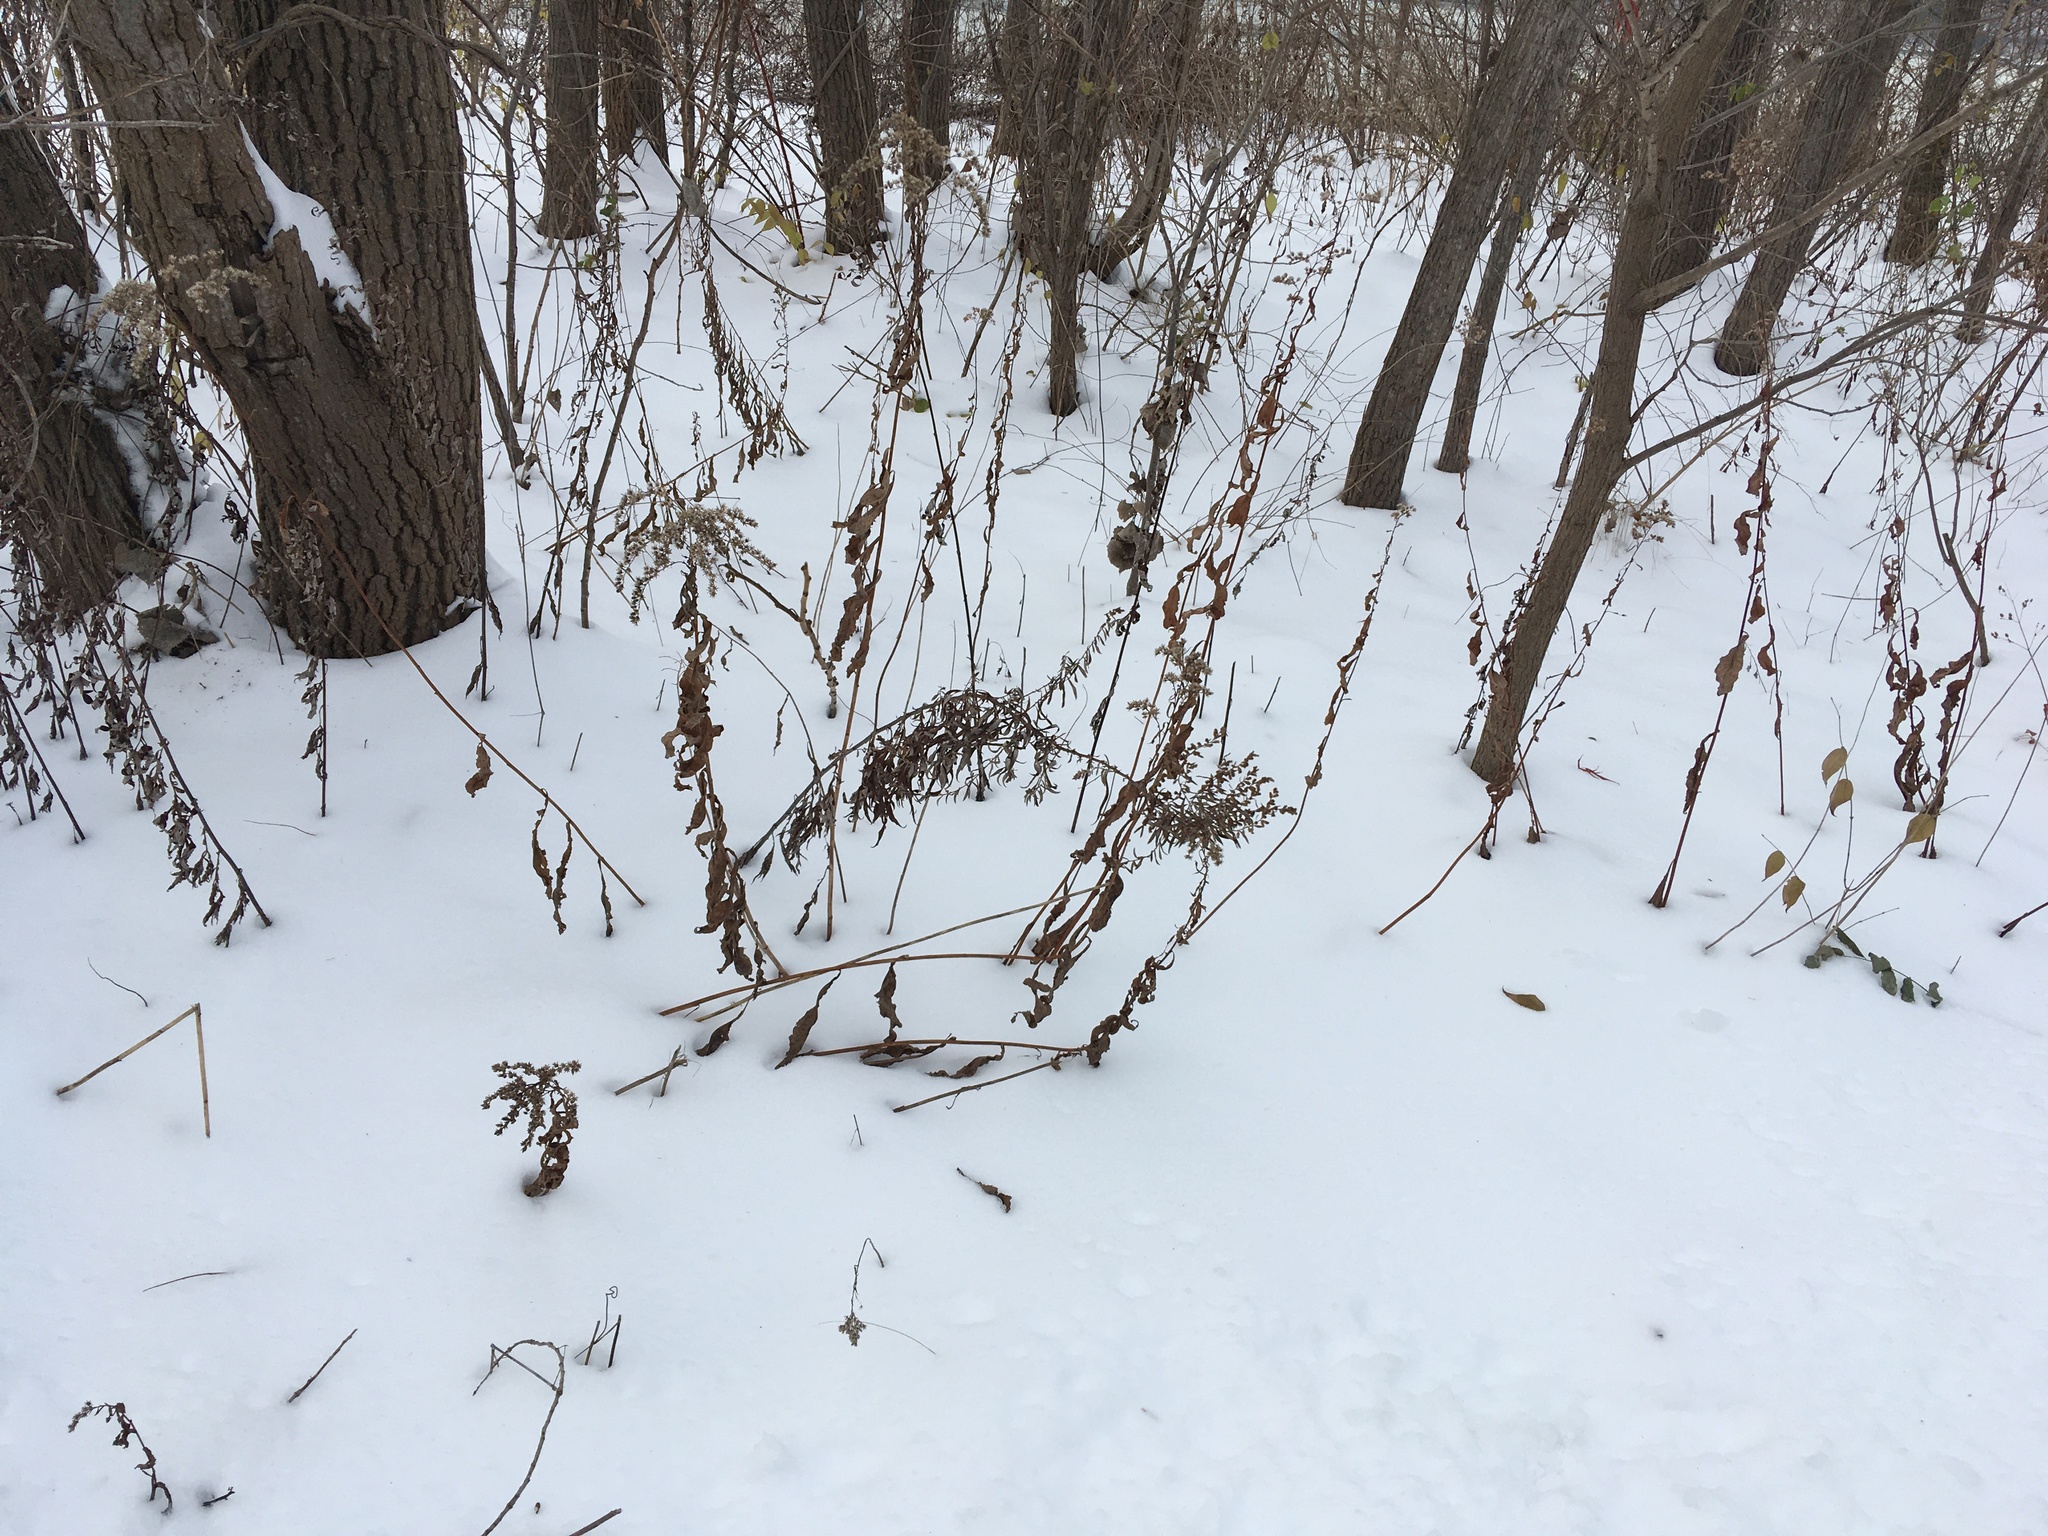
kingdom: Plantae
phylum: Tracheophyta
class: Magnoliopsida
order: Asterales
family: Asteraceae
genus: Artemisia
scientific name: Artemisia vulgaris
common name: Mugwort
